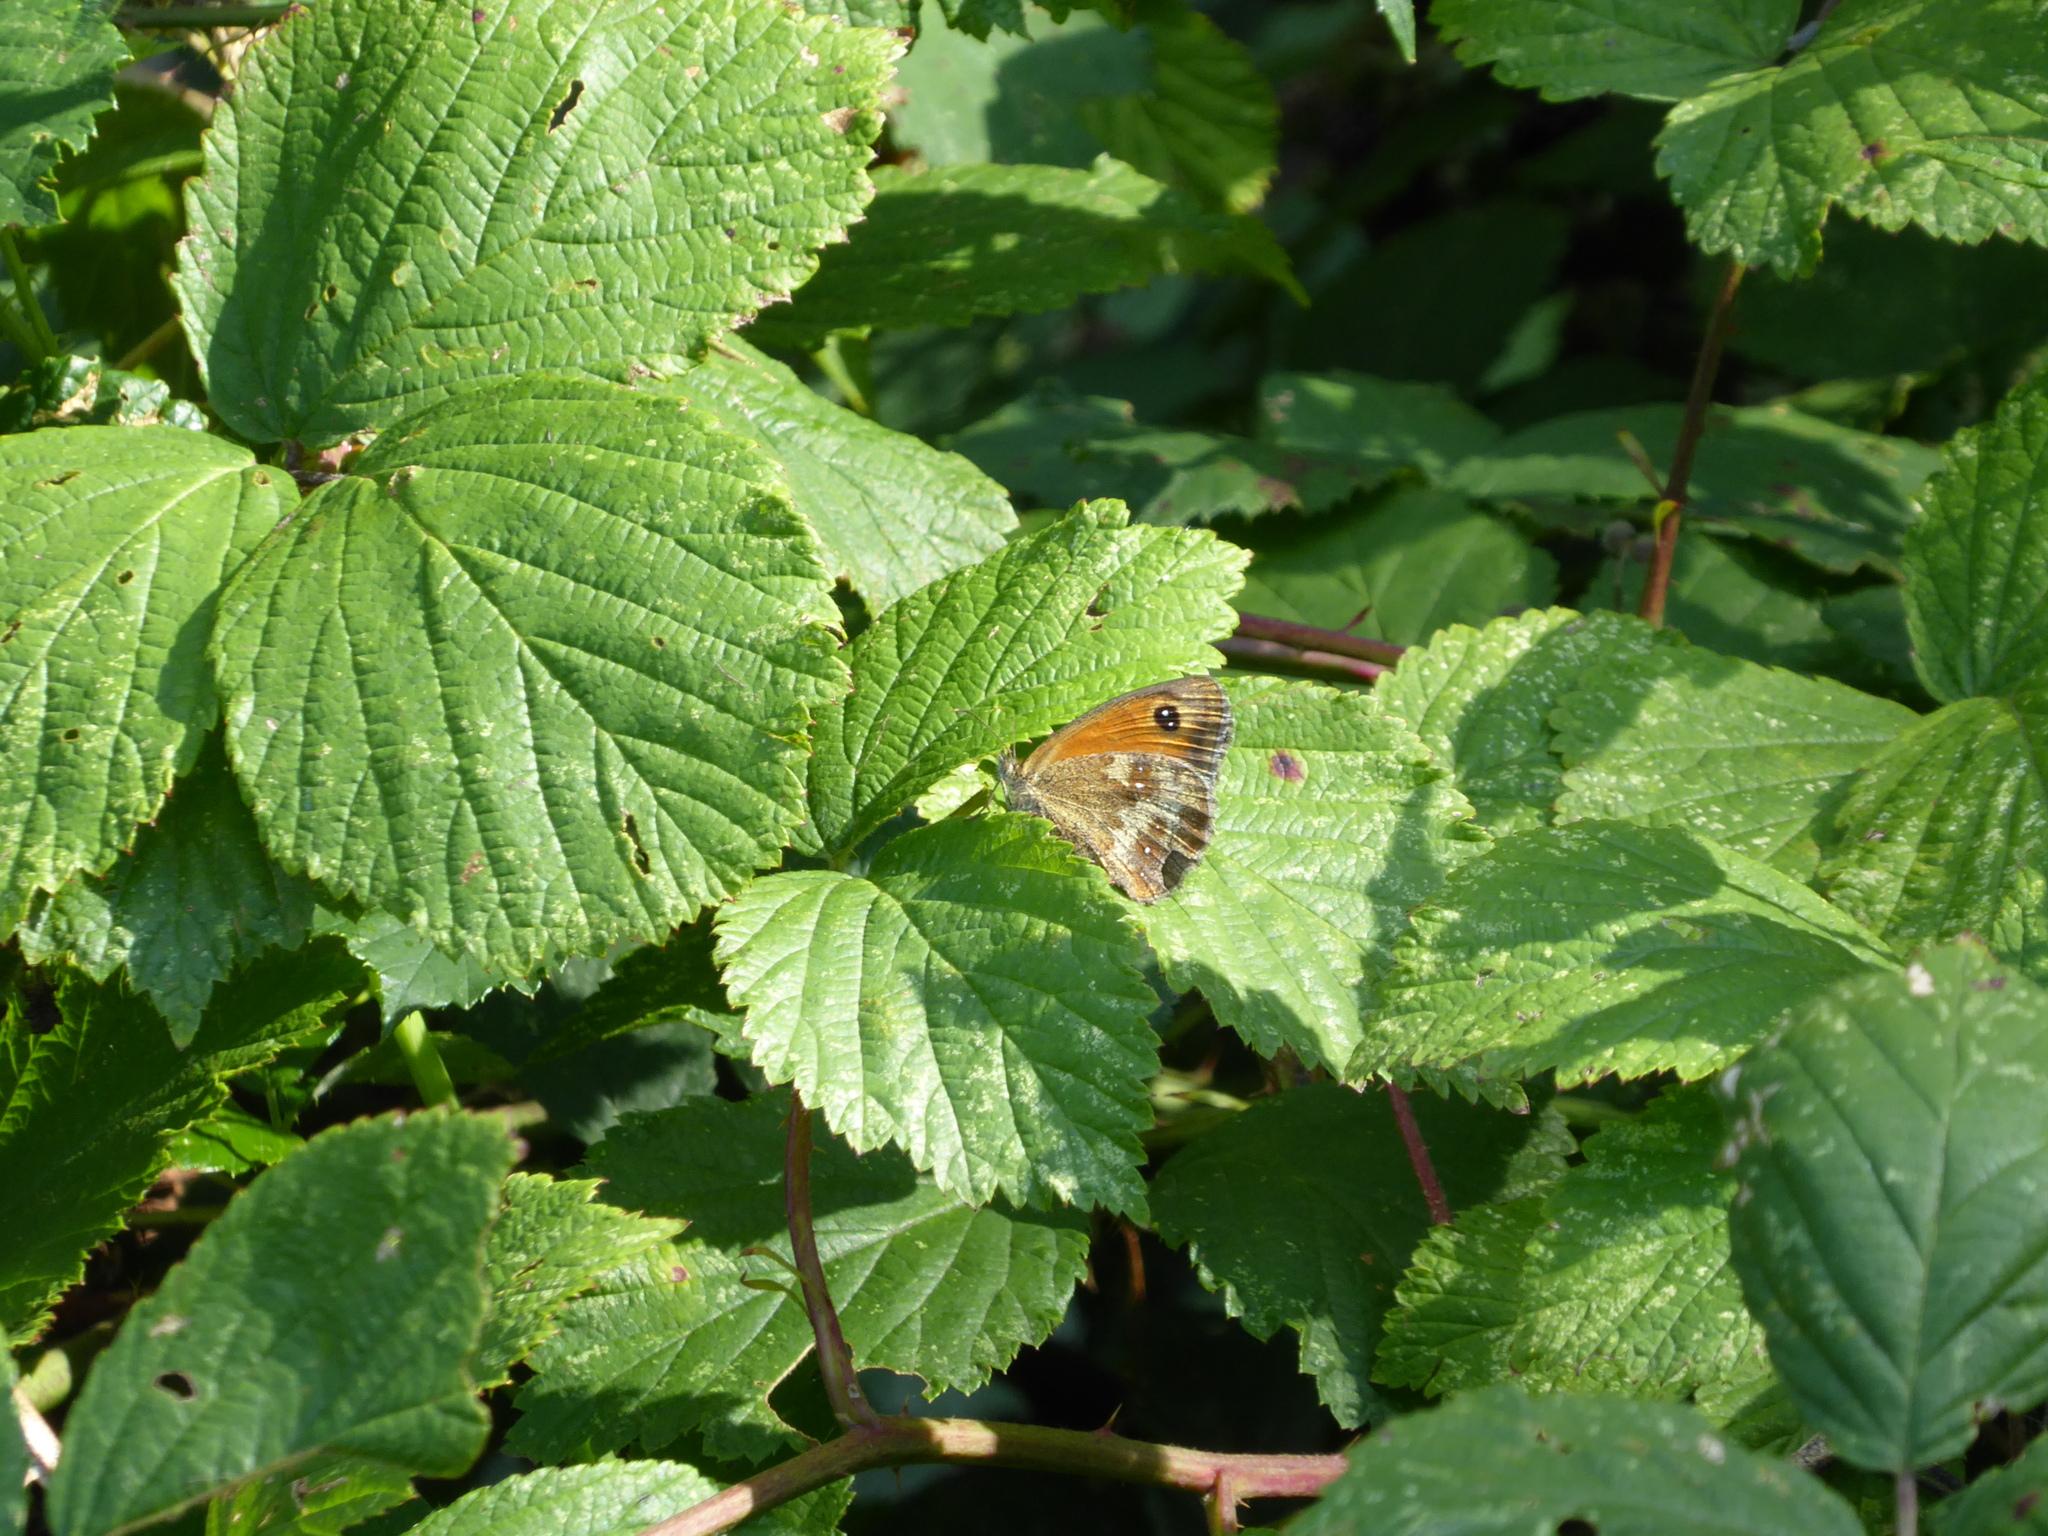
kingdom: Animalia
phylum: Arthropoda
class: Insecta
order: Lepidoptera
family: Nymphalidae
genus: Pyronia
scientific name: Pyronia tithonus
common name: Gatekeeper
